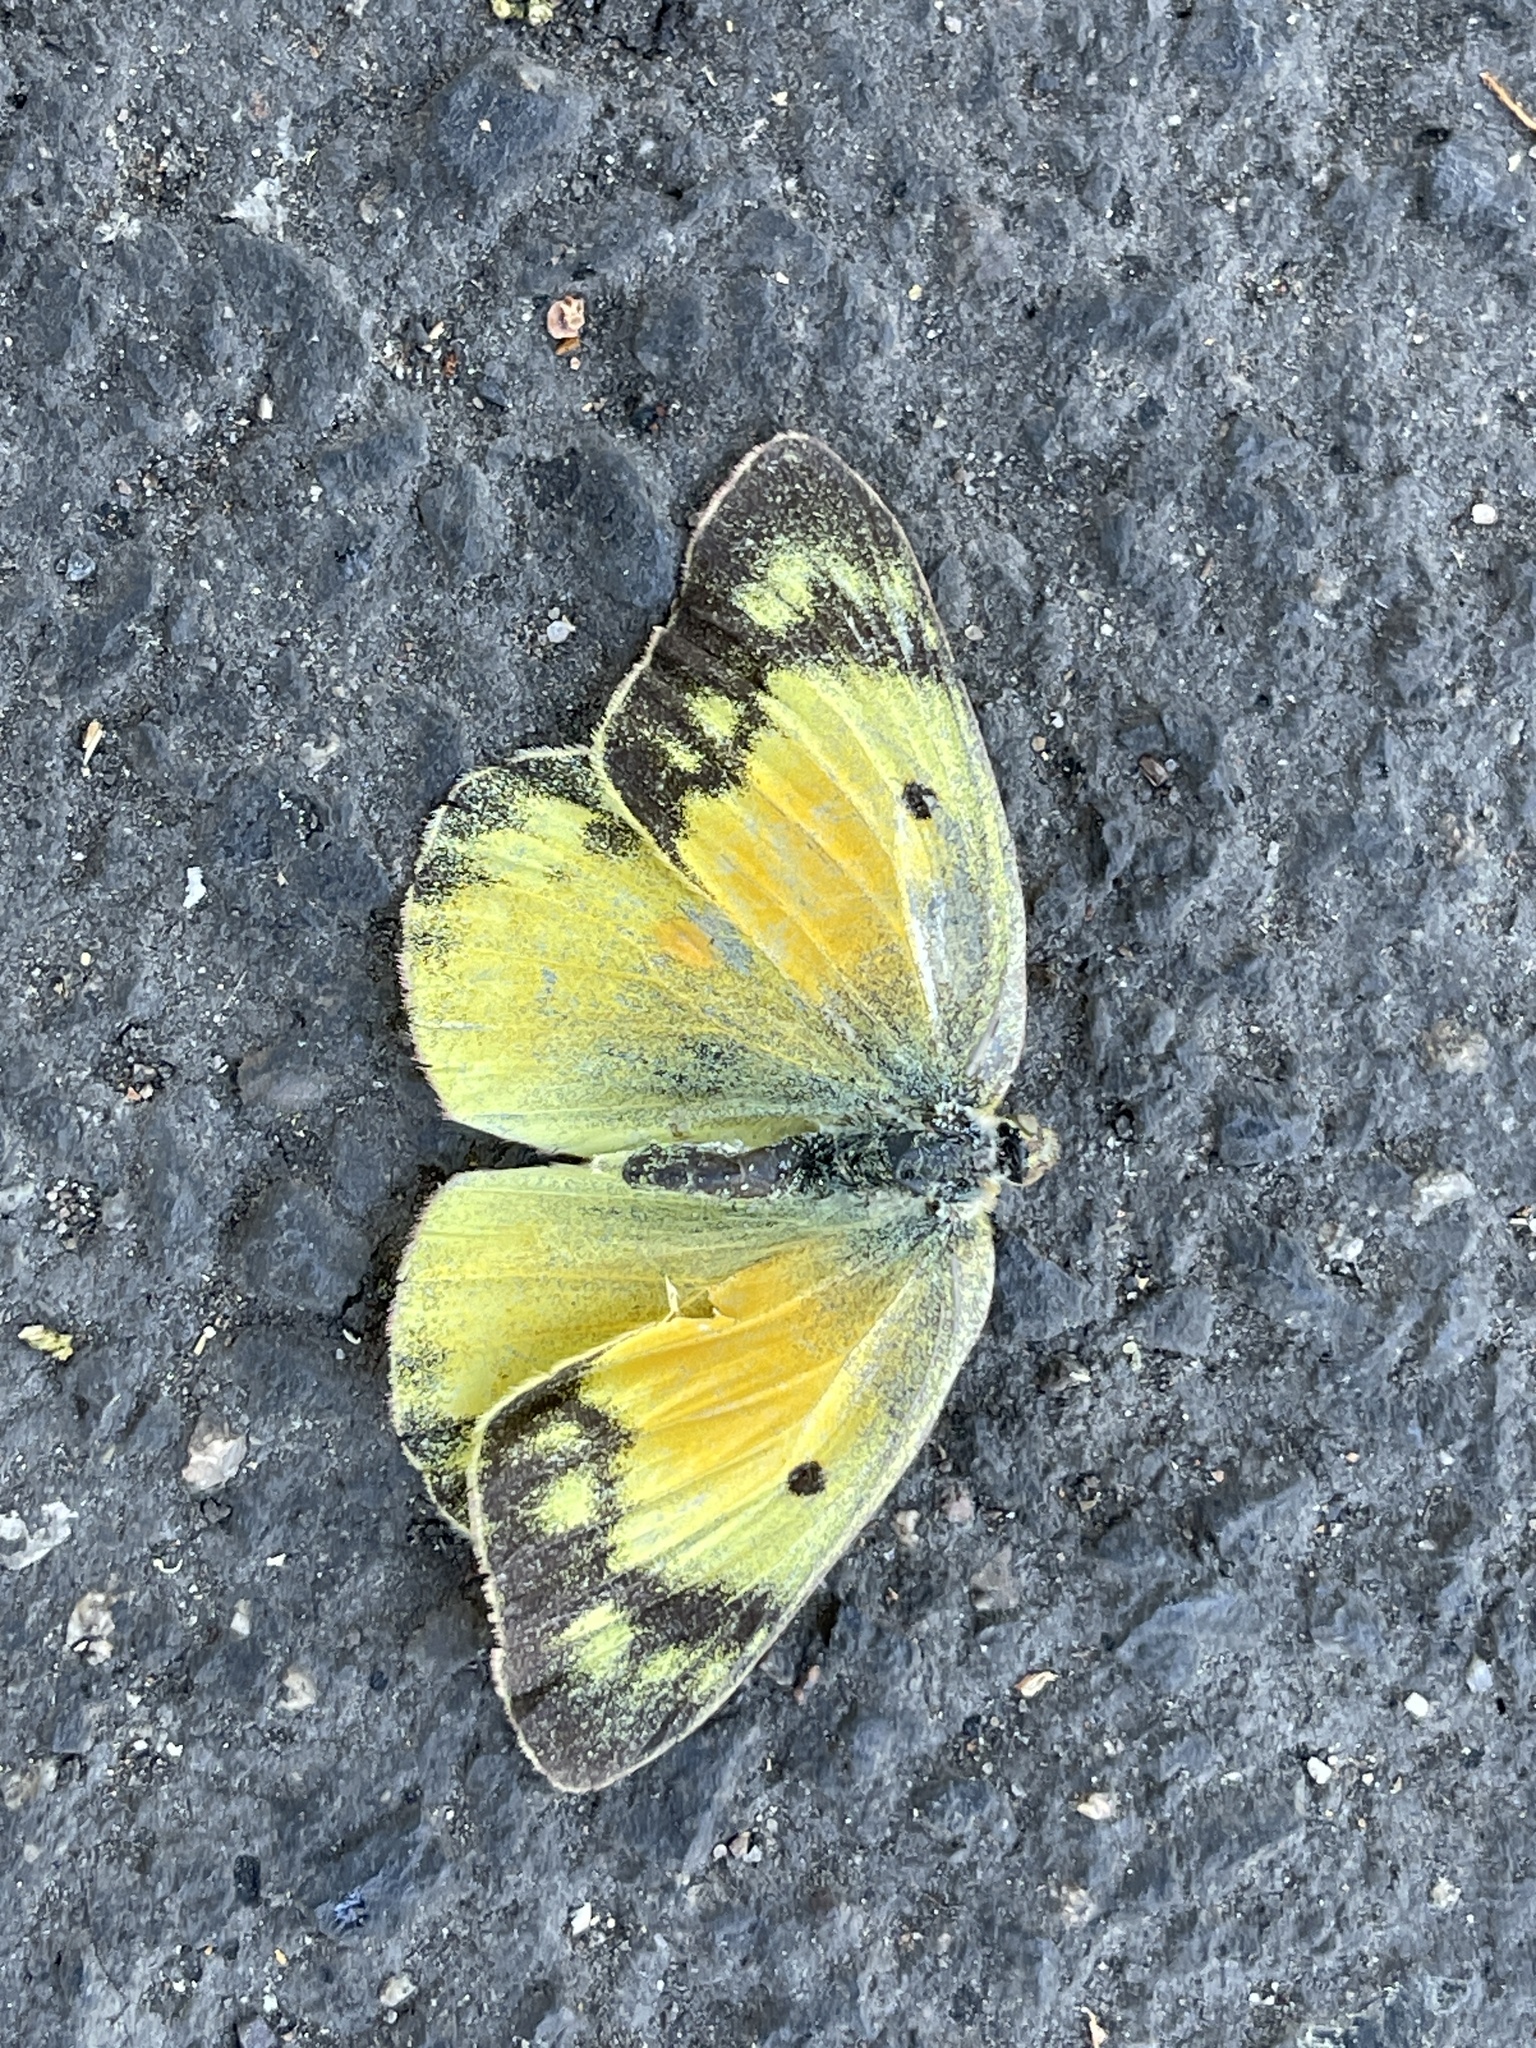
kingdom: Animalia
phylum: Arthropoda
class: Insecta
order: Lepidoptera
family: Pieridae
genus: Colias
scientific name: Colias eurytheme
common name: Alfalfa butterfly
